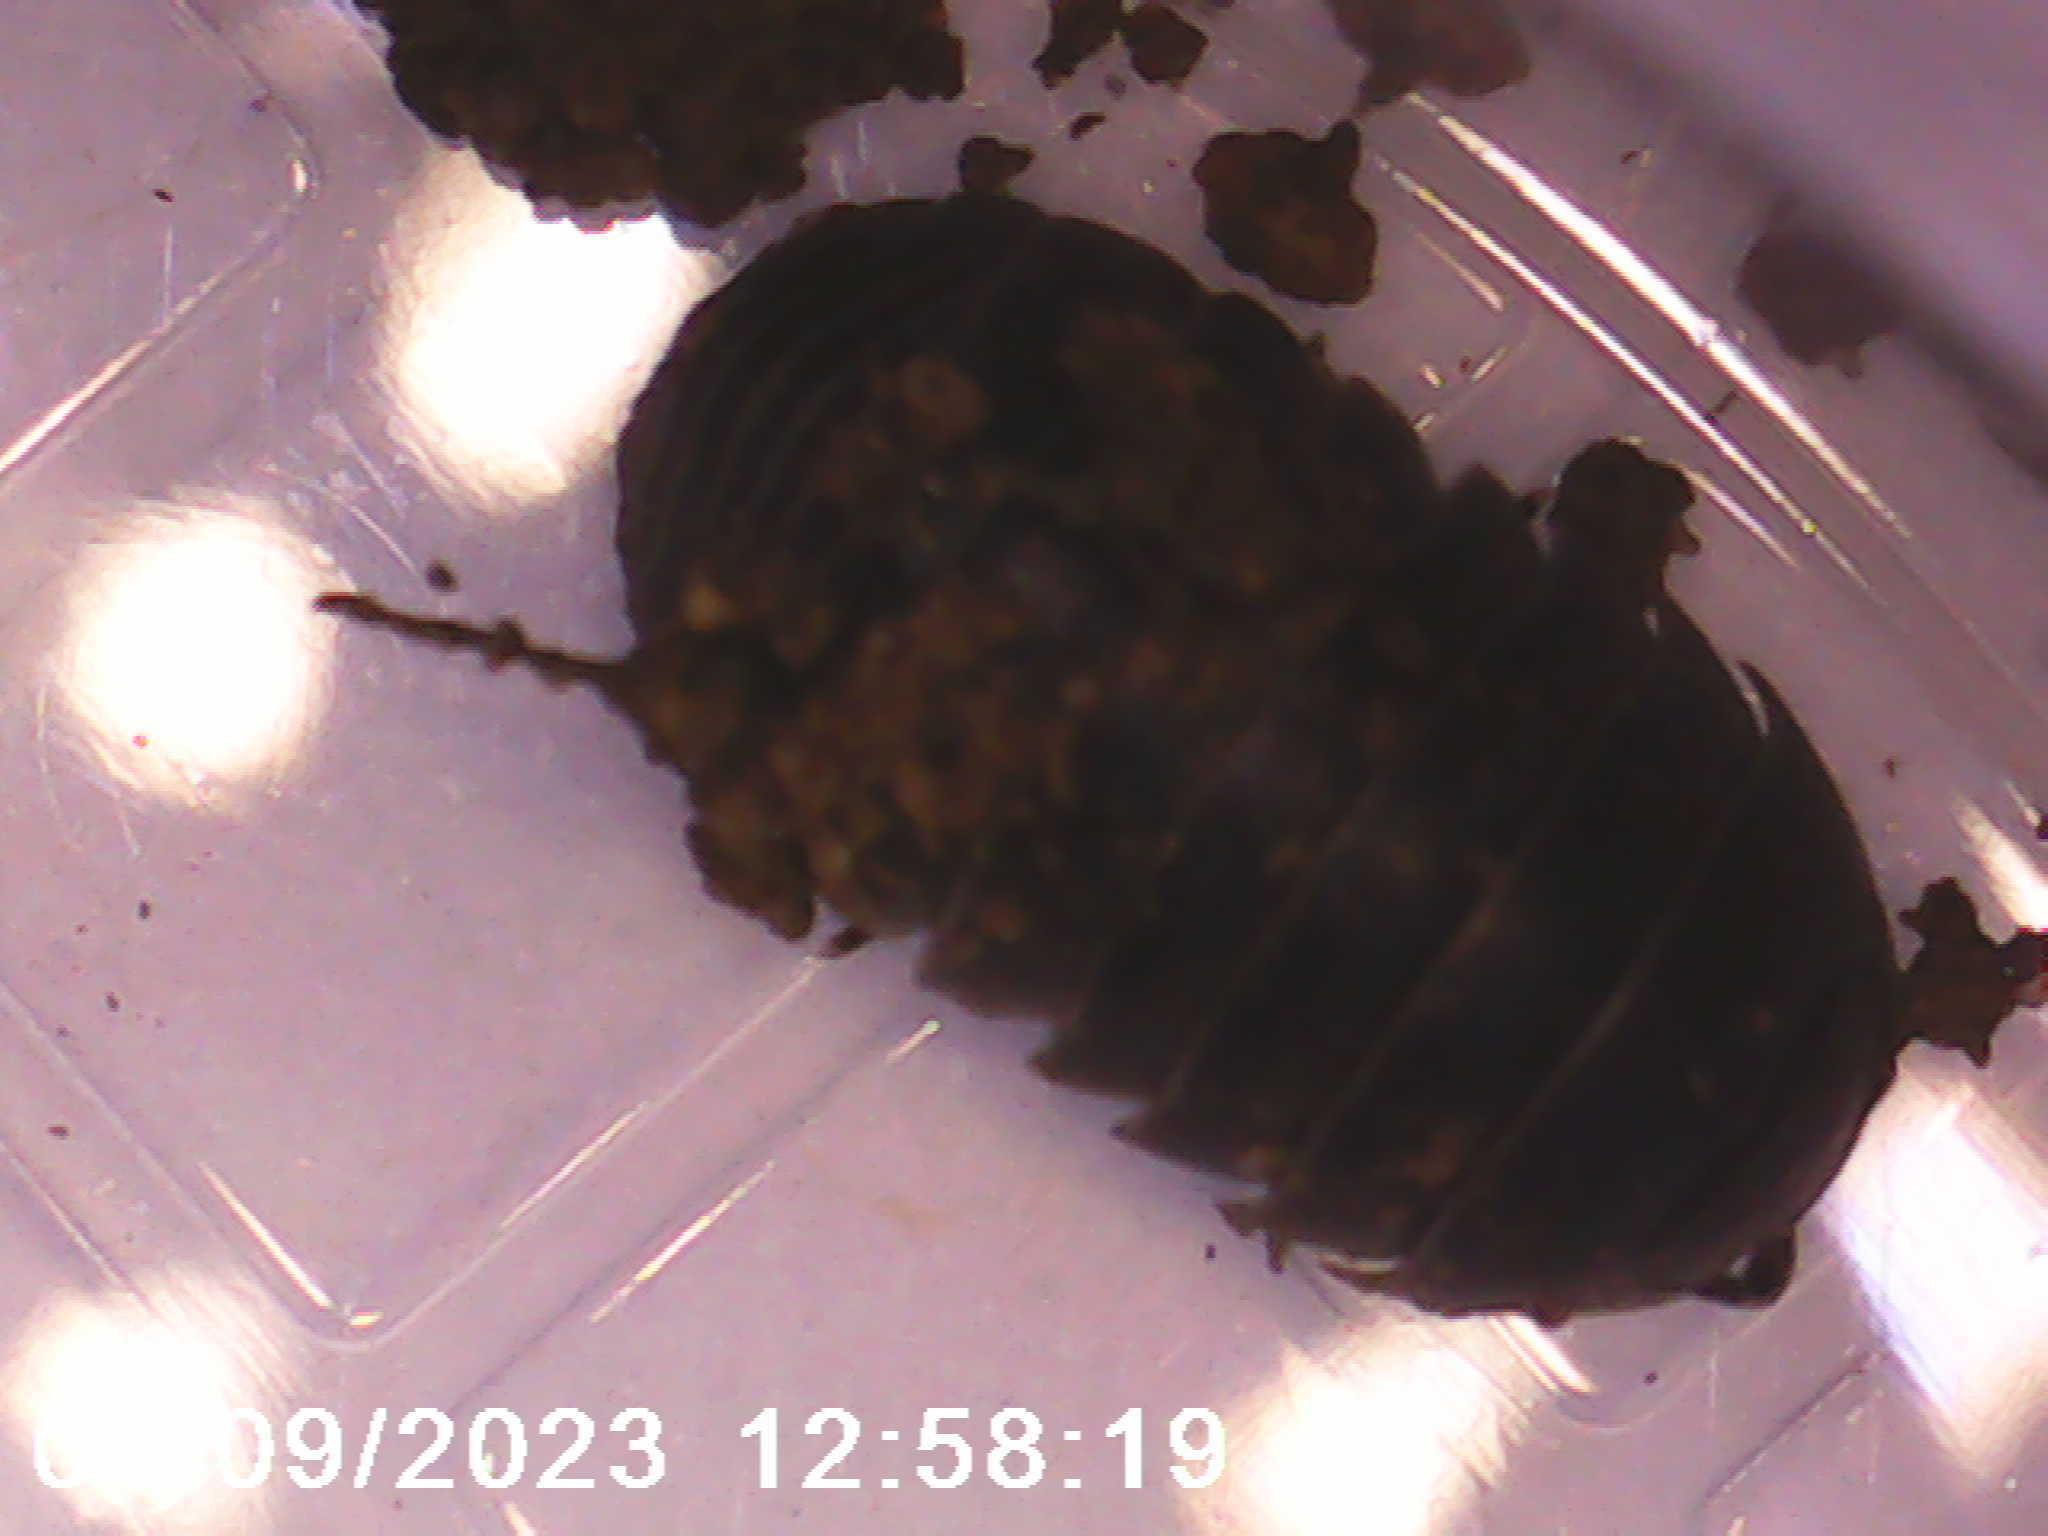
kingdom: Animalia
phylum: Arthropoda
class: Malacostraca
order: Isopoda
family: Armadillidiidae
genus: Armadillidium
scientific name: Armadillidium vulgare
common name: Common pill woodlouse
